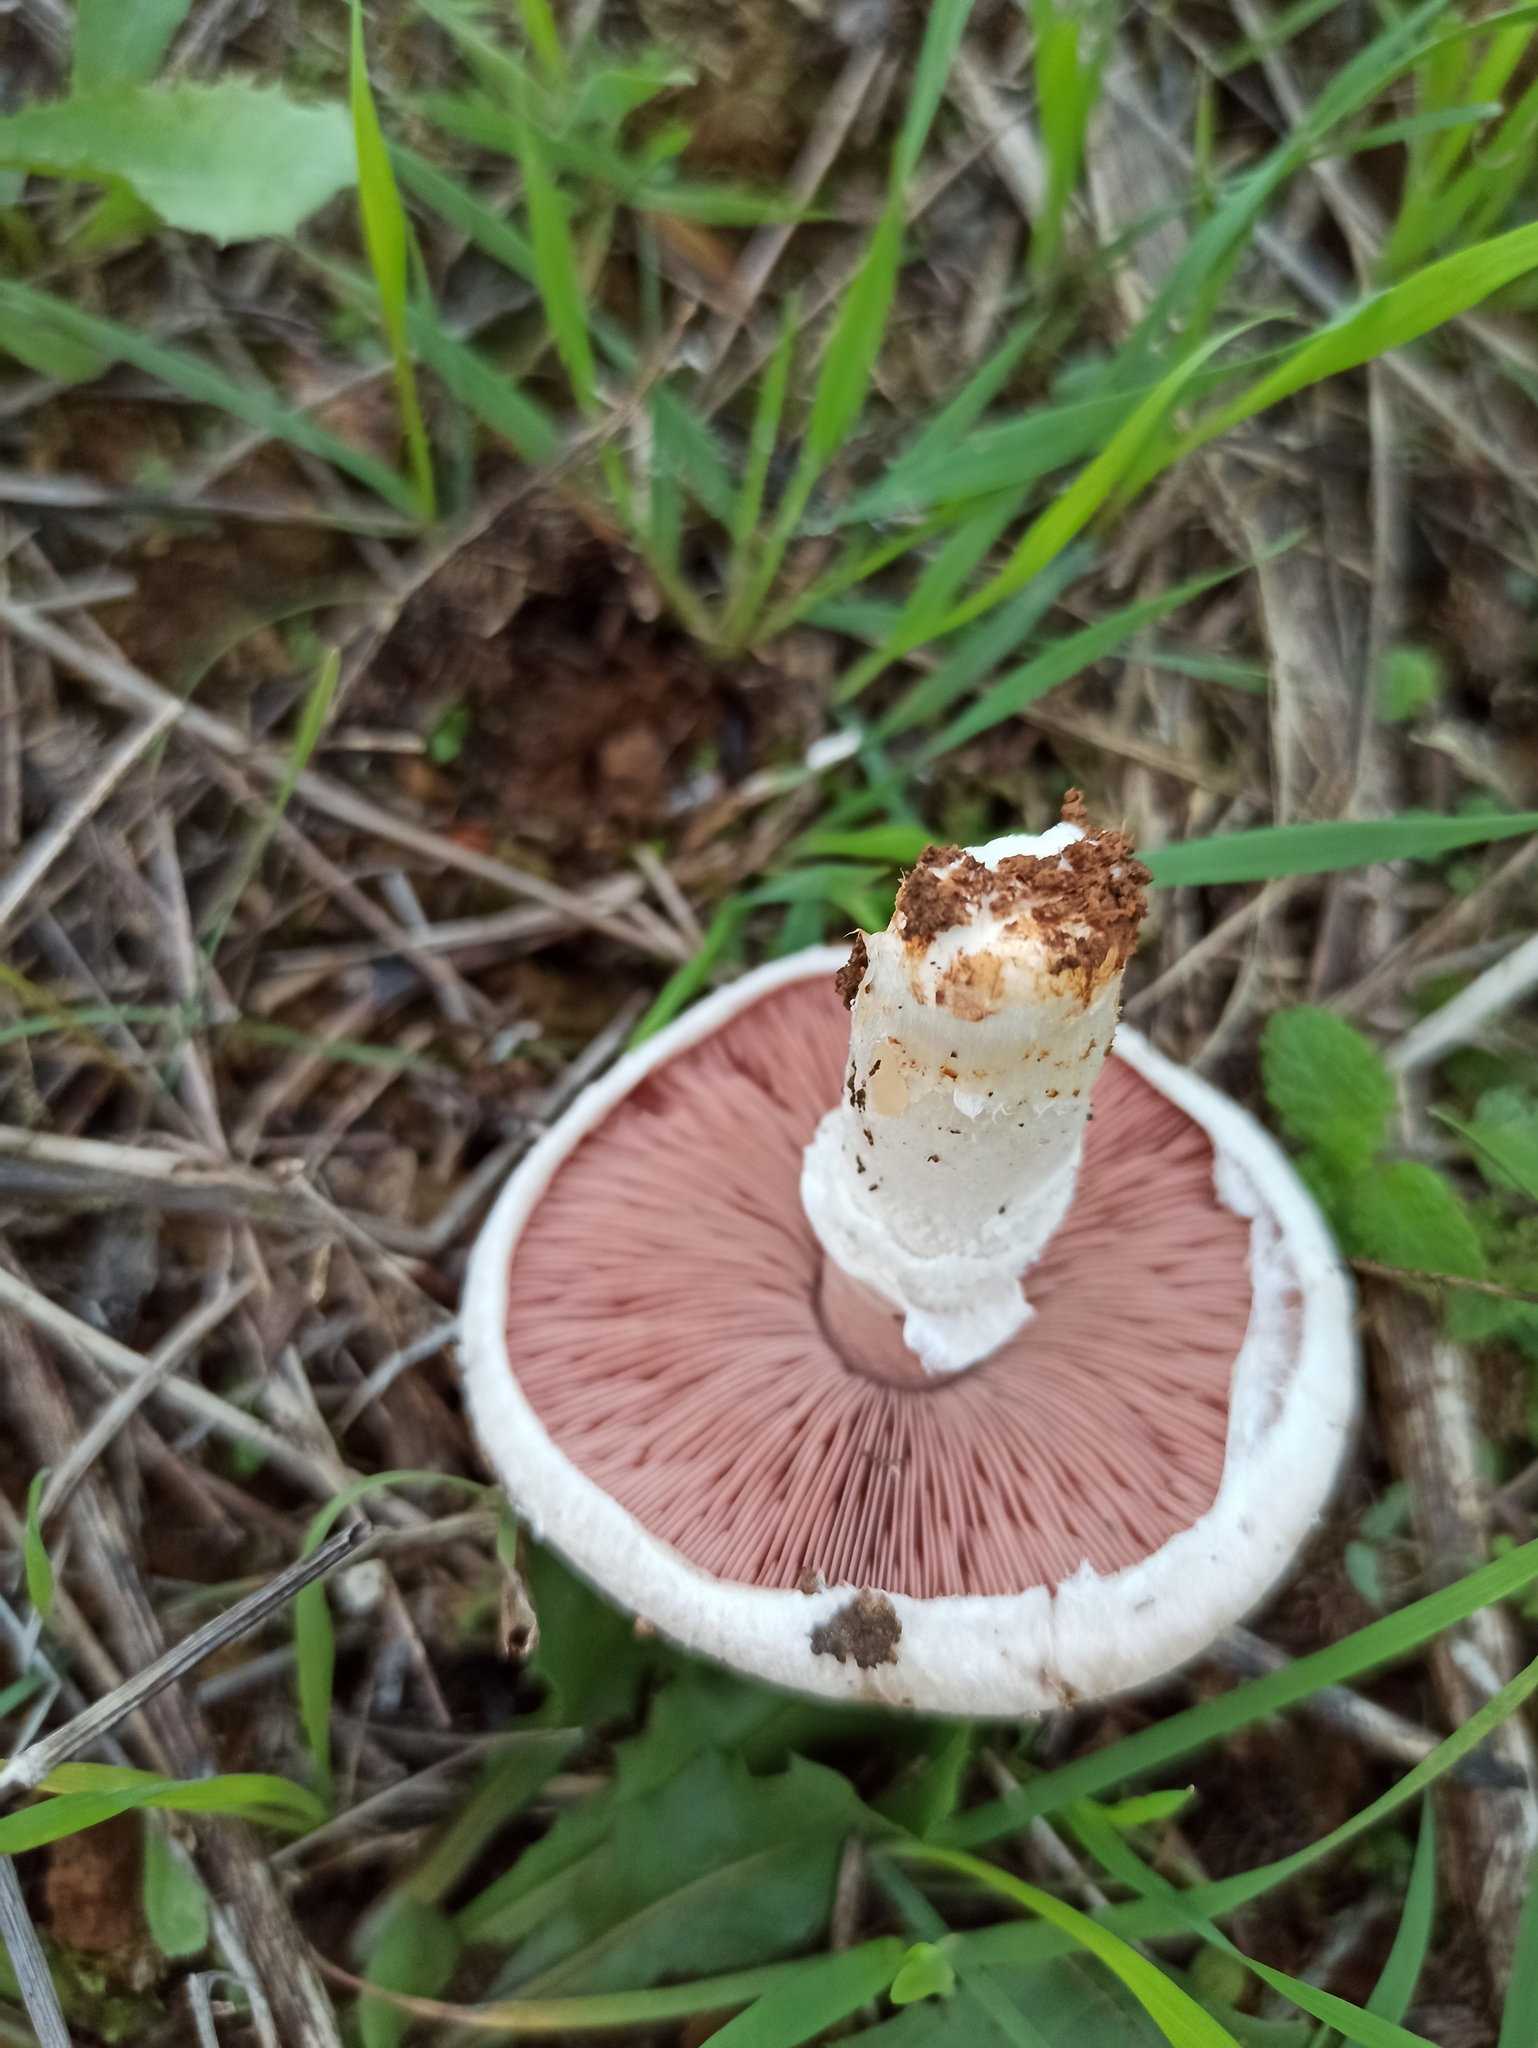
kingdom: Fungi
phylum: Basidiomycota
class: Agaricomycetes
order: Agaricales
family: Agaricaceae
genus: Agaricus
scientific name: Agaricus campestris
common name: Field mushroom
